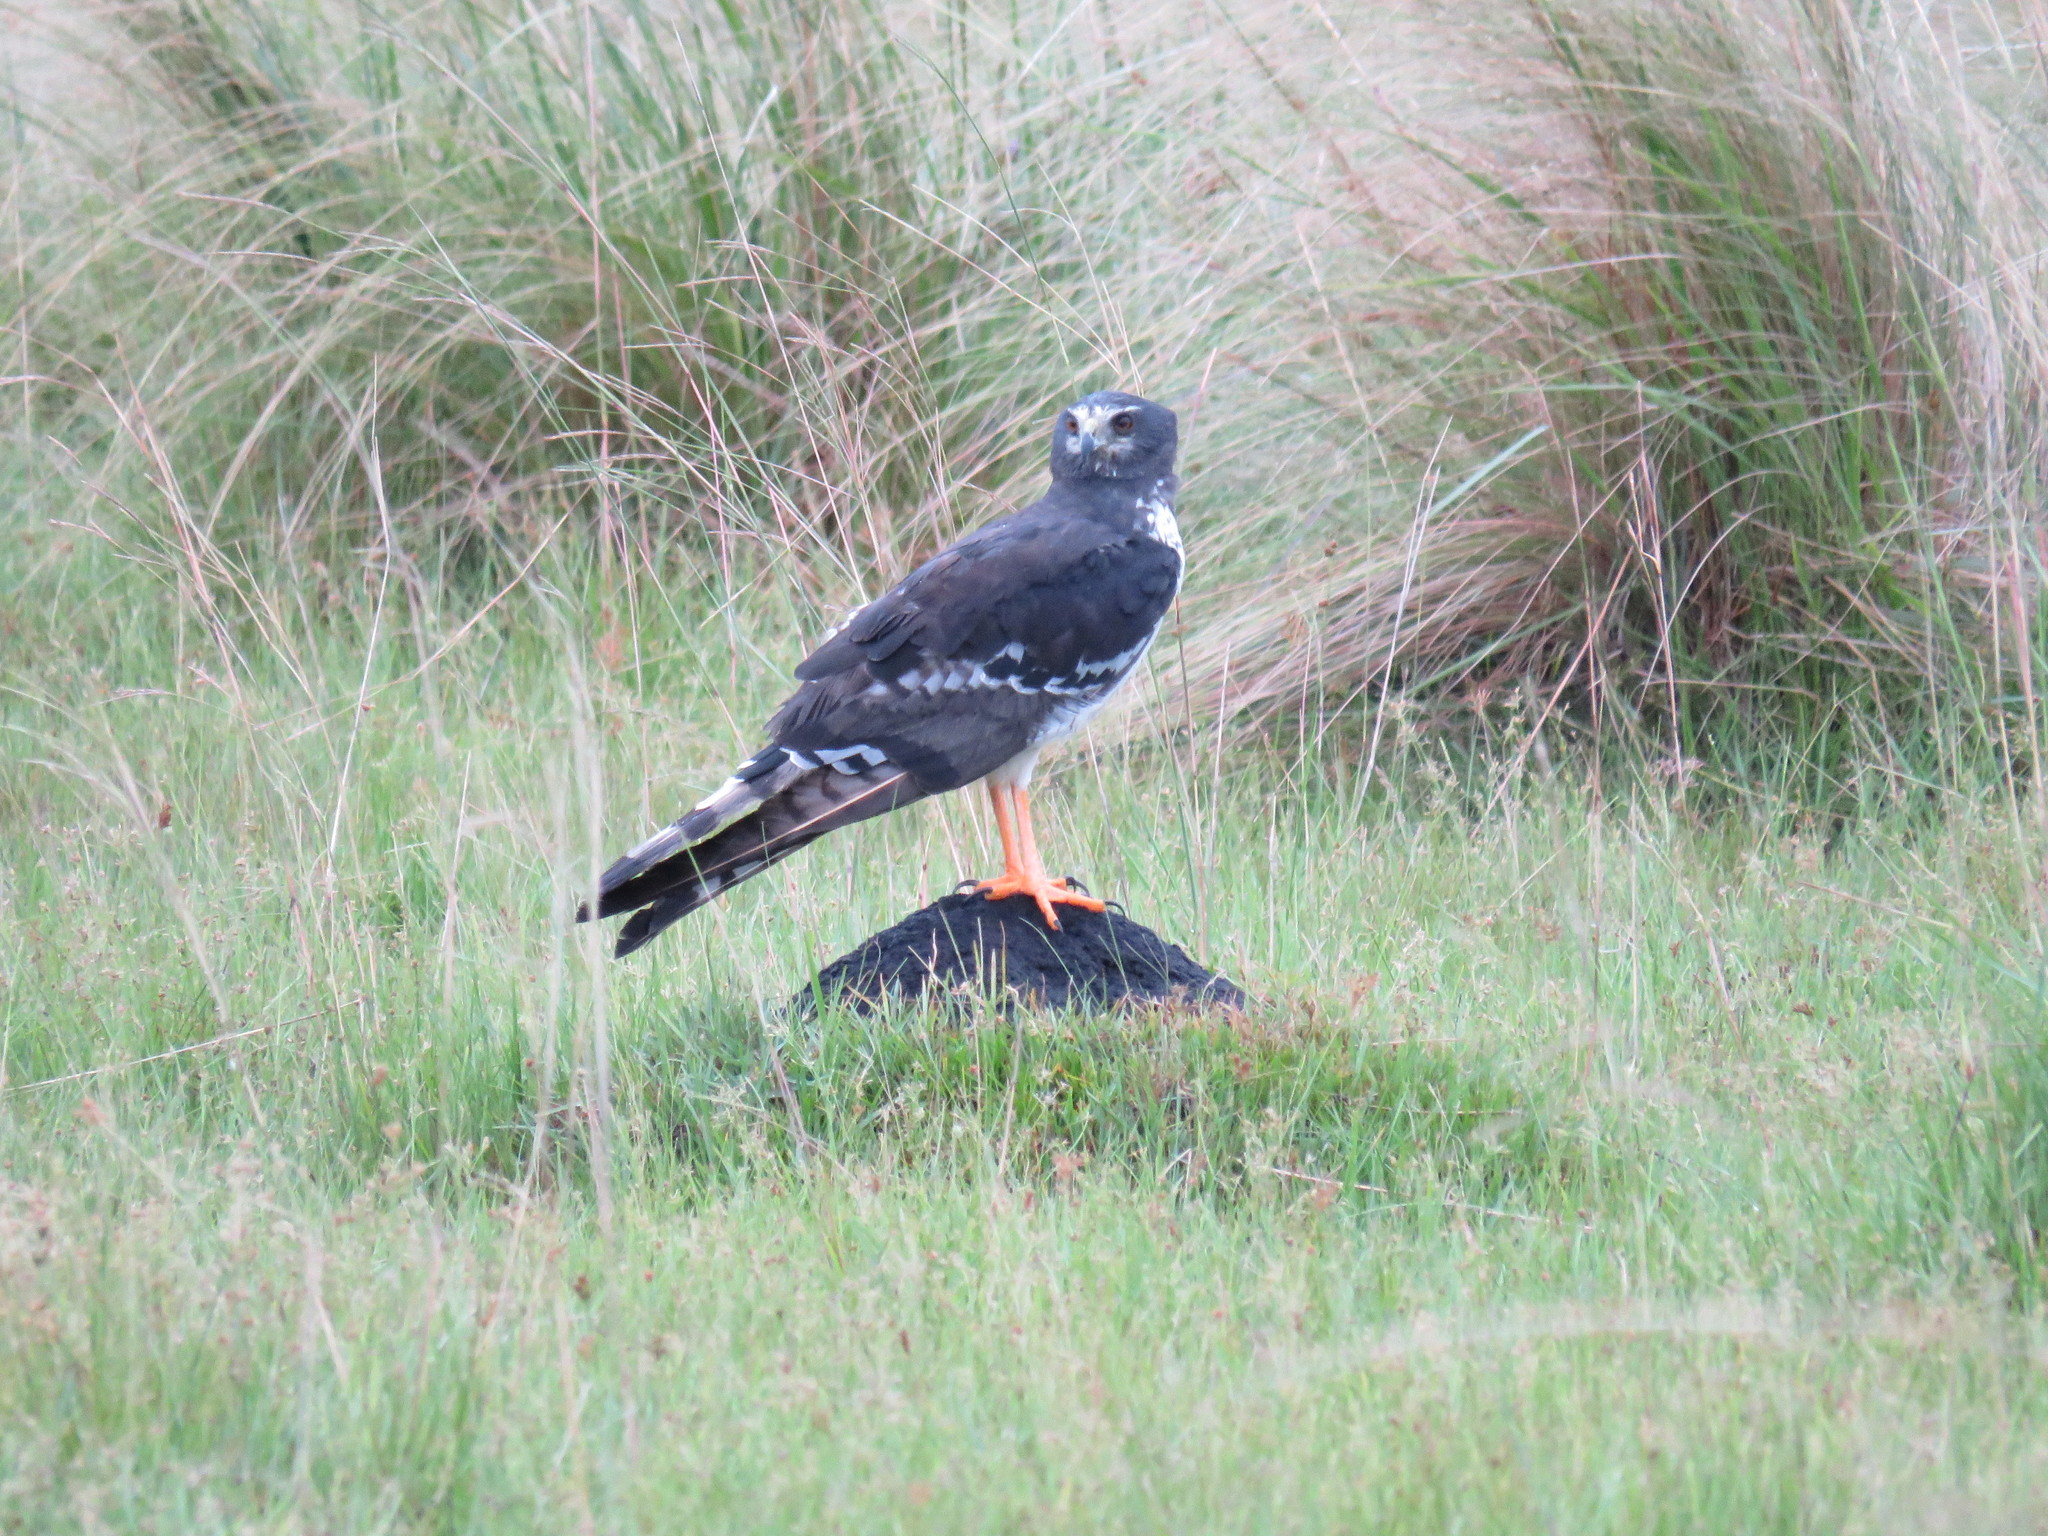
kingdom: Animalia
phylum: Chordata
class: Aves
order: Accipitriformes
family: Accipitridae
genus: Circus
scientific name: Circus buffoni
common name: Long-winged harrier
